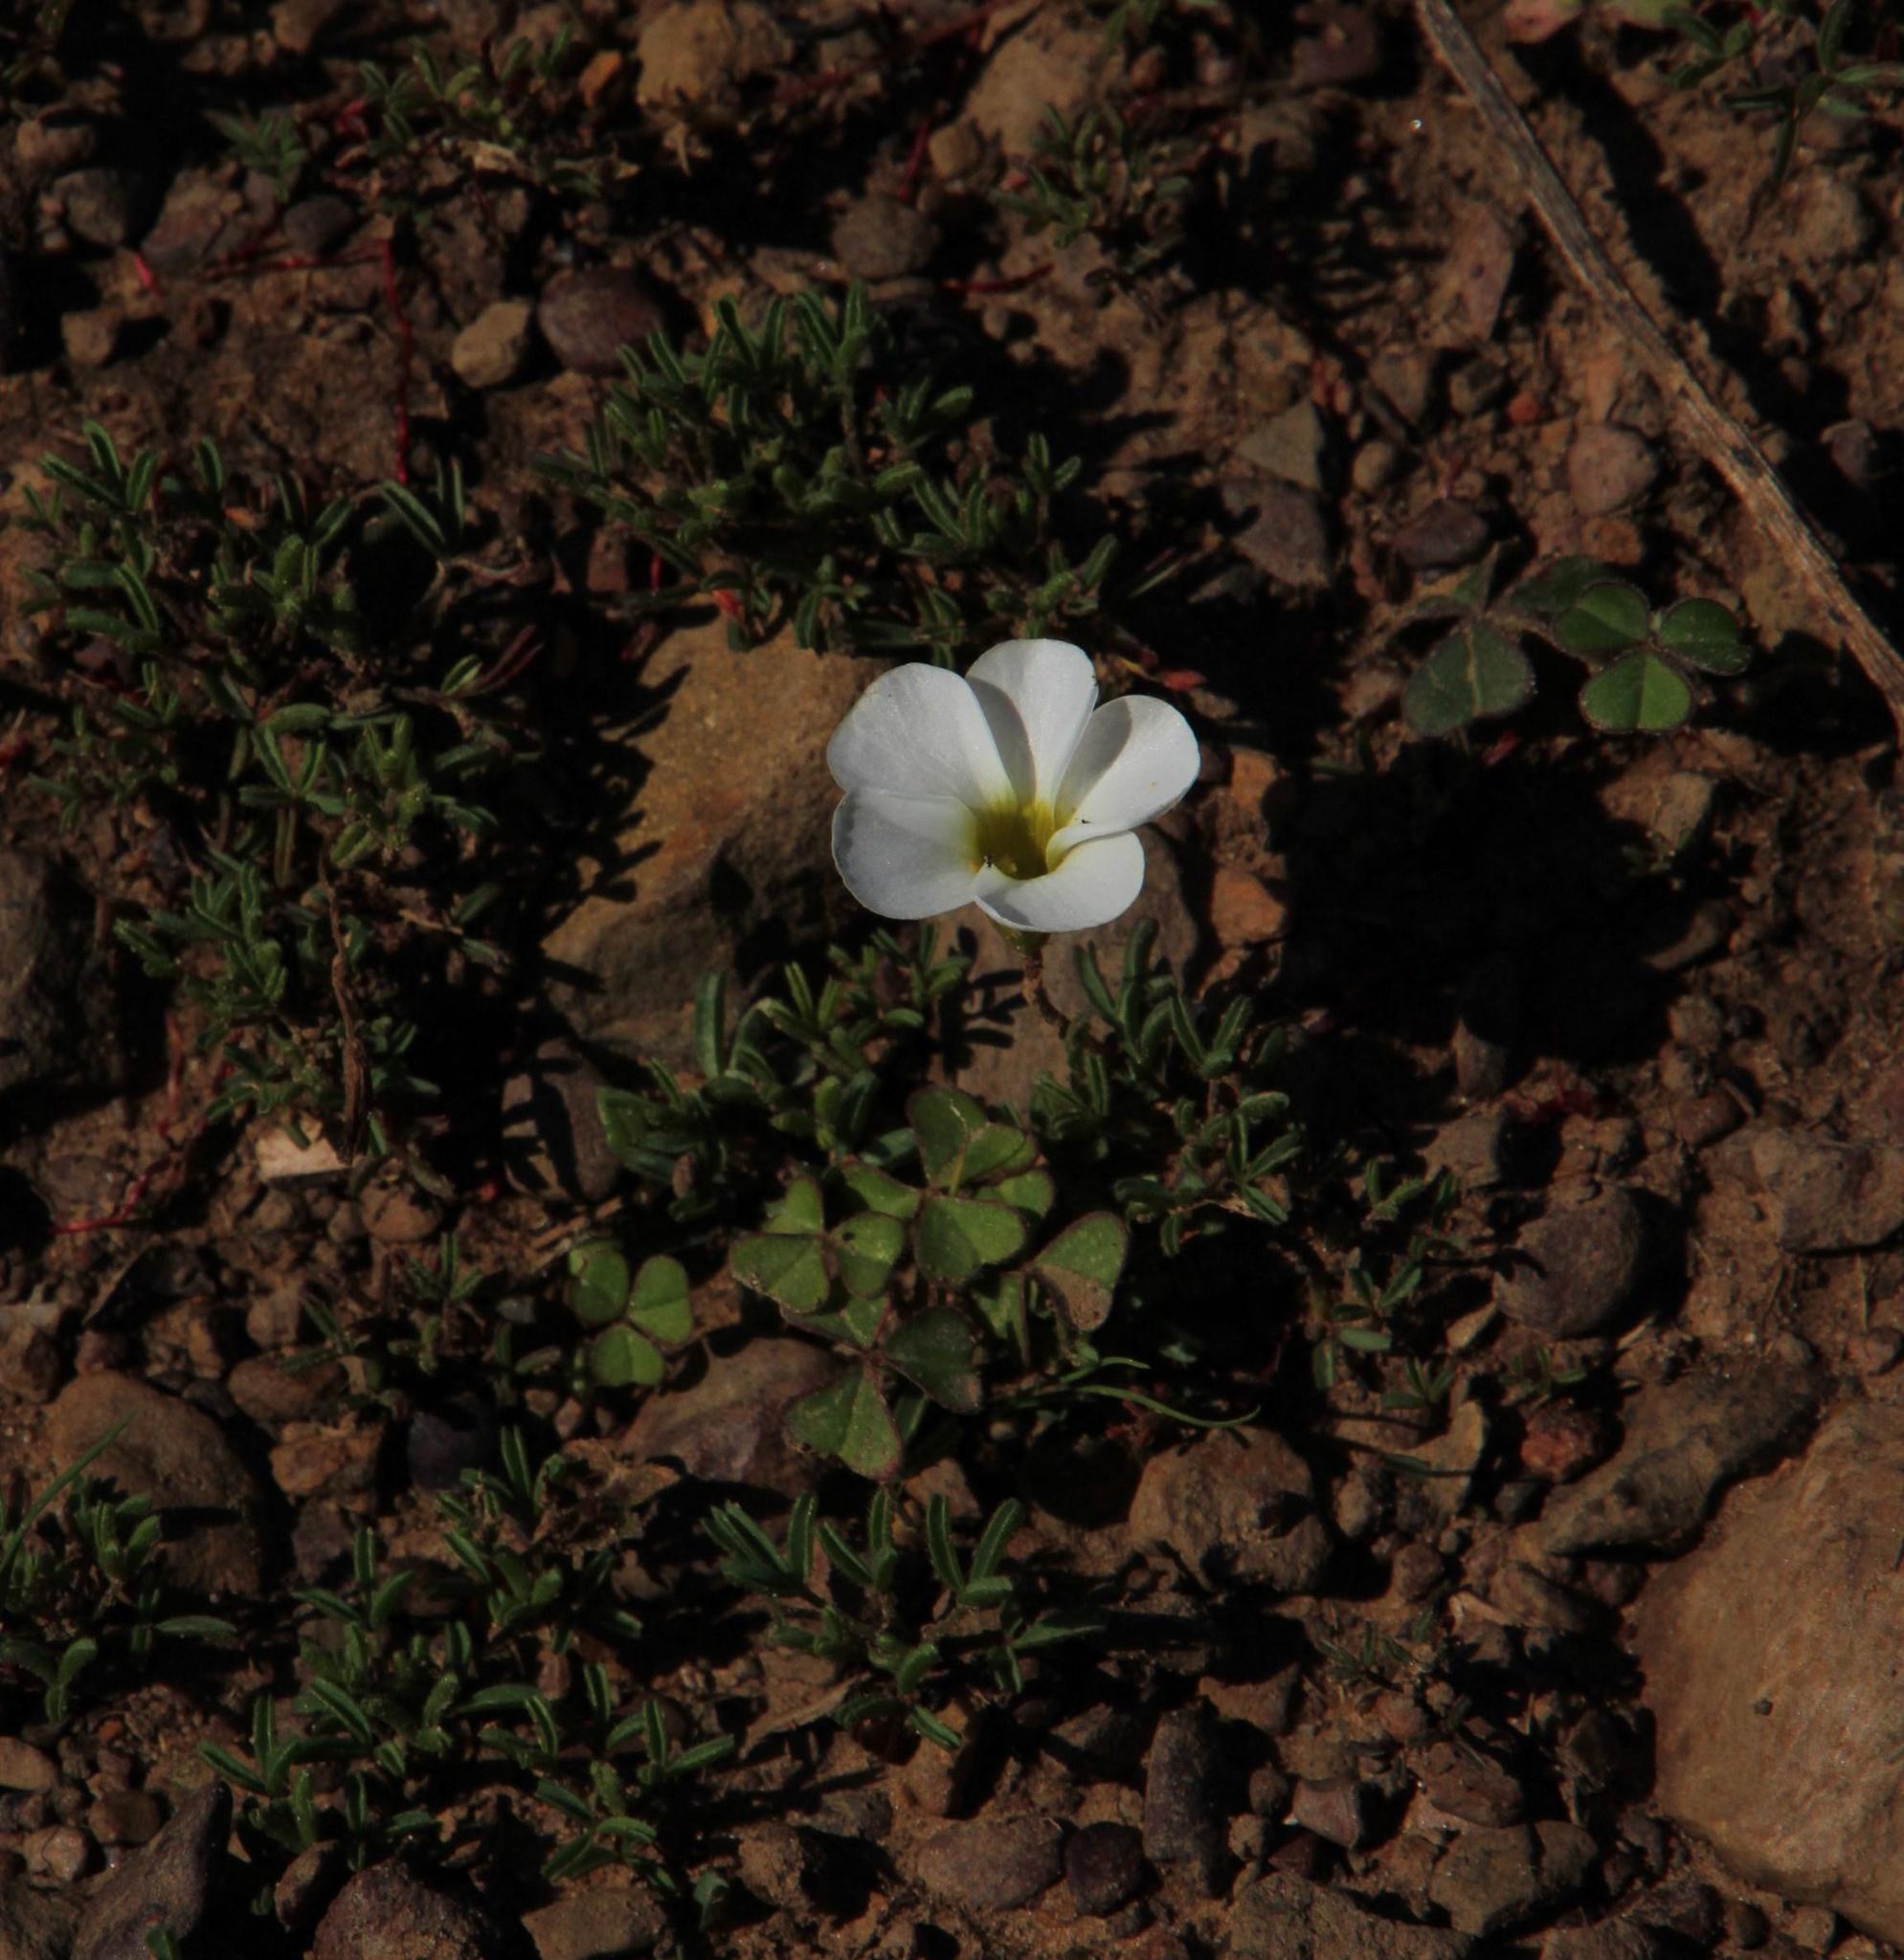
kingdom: Plantae
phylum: Tracheophyta
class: Magnoliopsida
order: Oxalidales
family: Oxalidaceae
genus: Oxalis
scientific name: Oxalis glabra
